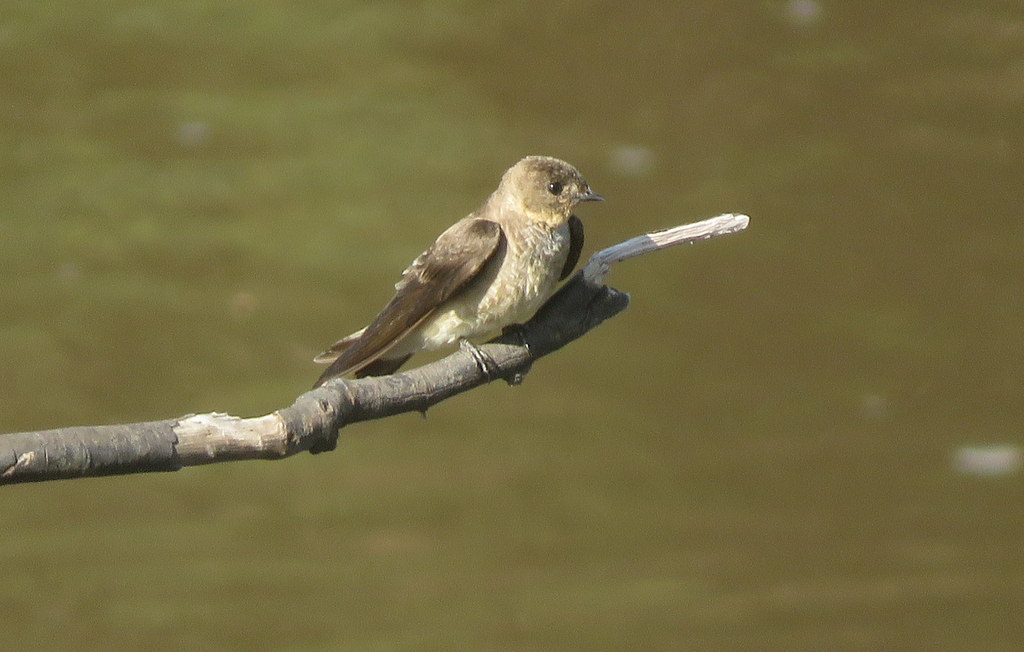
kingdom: Animalia
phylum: Chordata
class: Aves
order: Passeriformes
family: Hirundinidae
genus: Stelgidopteryx
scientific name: Stelgidopteryx ruficollis
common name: Southern rough-winged swallow
